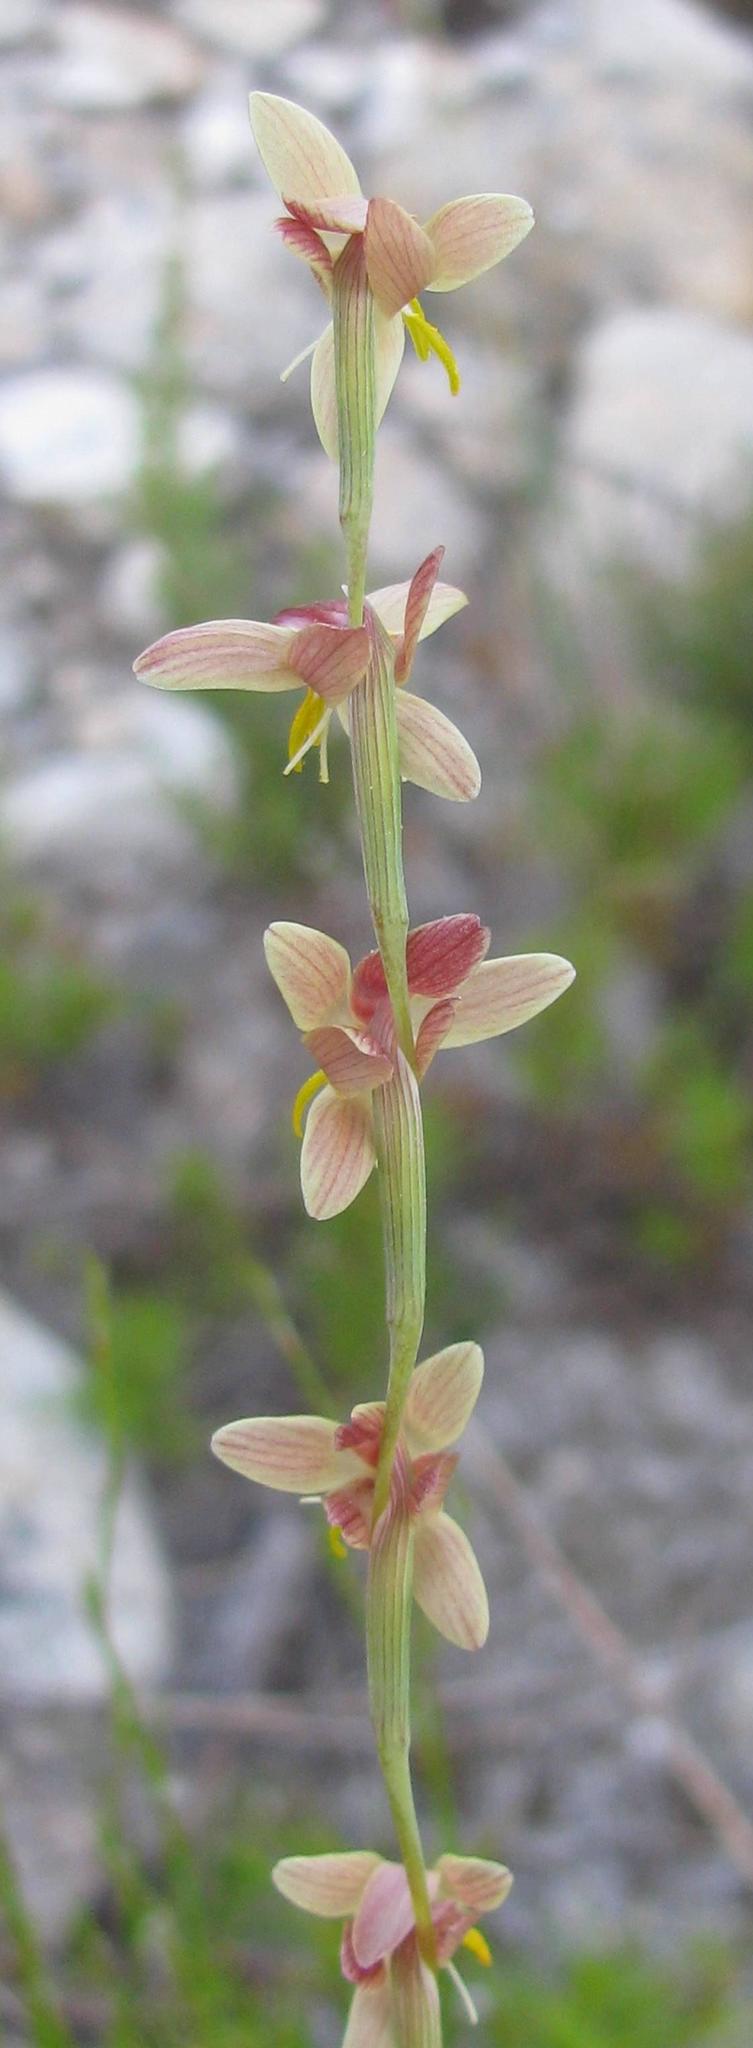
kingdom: Plantae
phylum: Tracheophyta
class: Liliopsida
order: Asparagales
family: Iridaceae
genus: Hesperantha
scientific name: Hesperantha radiata
